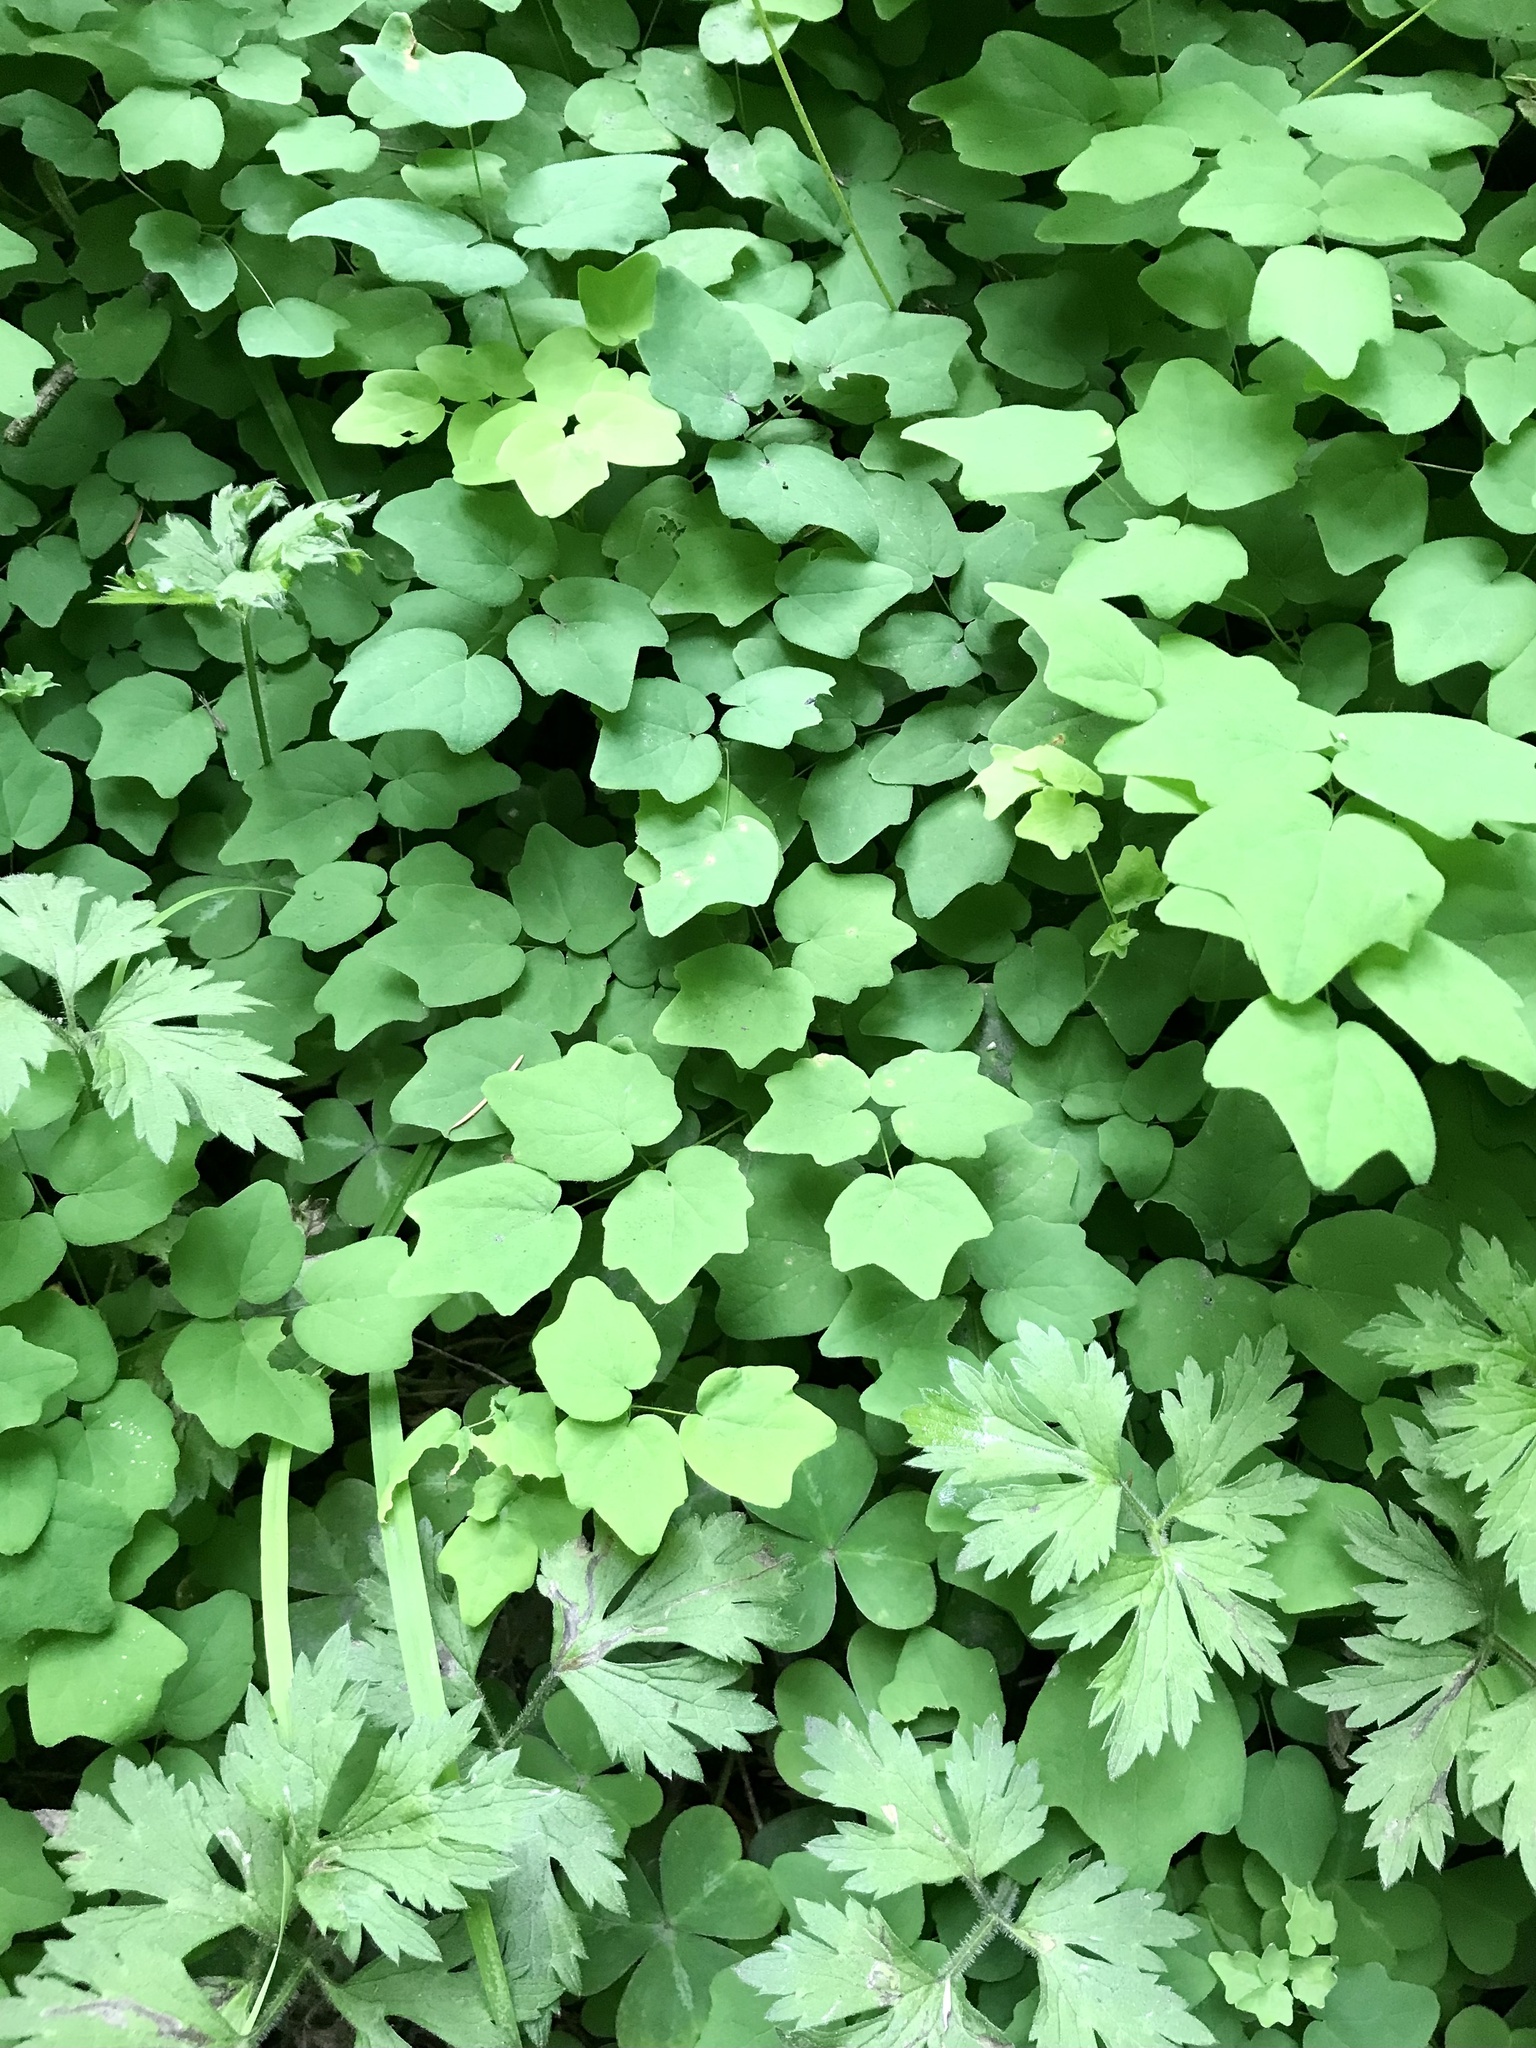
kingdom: Plantae
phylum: Tracheophyta
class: Magnoliopsida
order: Ranunculales
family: Berberidaceae
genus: Vancouveria
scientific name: Vancouveria hexandra
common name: Northern inside-out-flower
